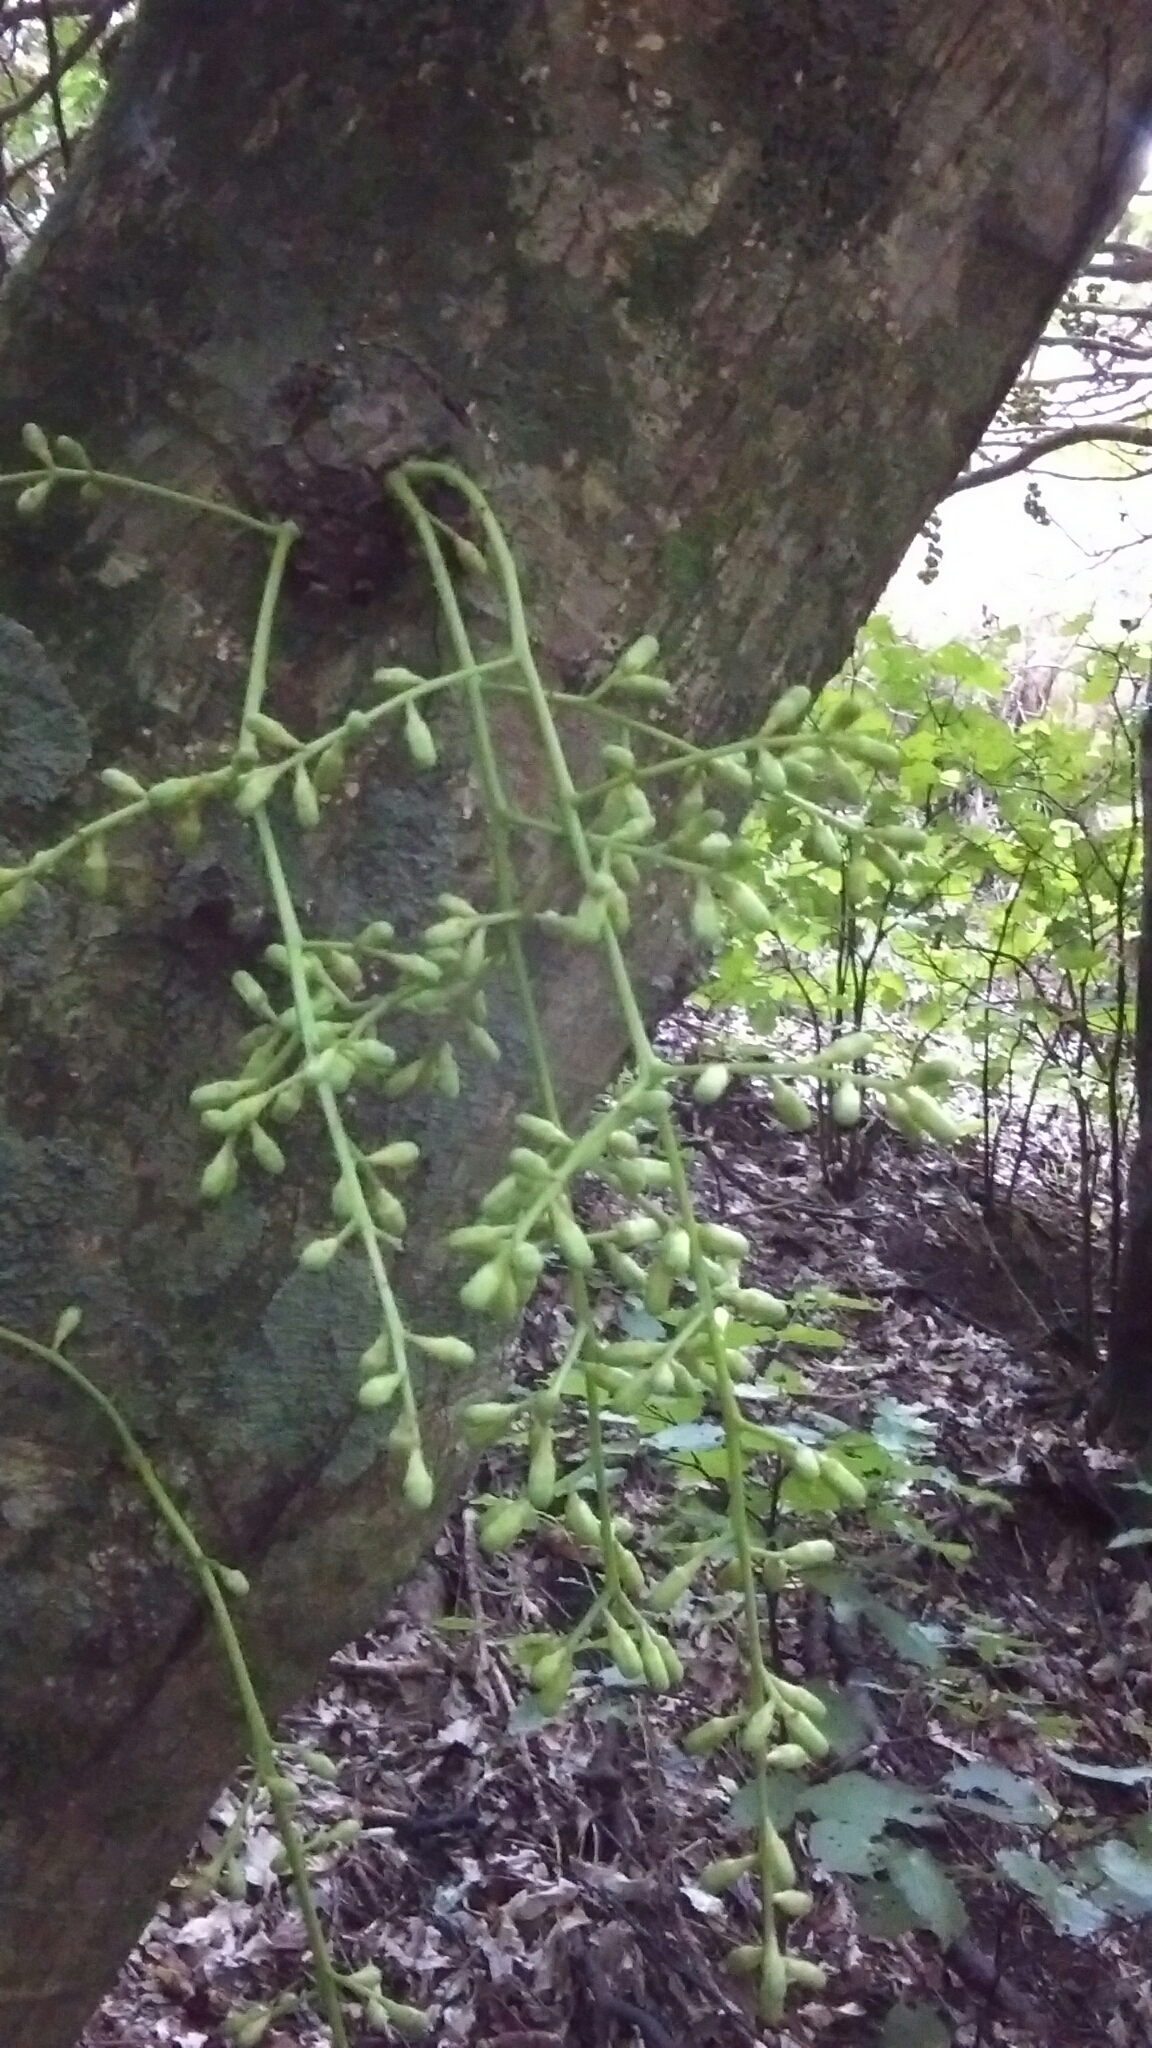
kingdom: Plantae
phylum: Tracheophyta
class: Magnoliopsida
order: Sapindales
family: Meliaceae
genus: Didymocheton
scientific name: Didymocheton spectabilis
